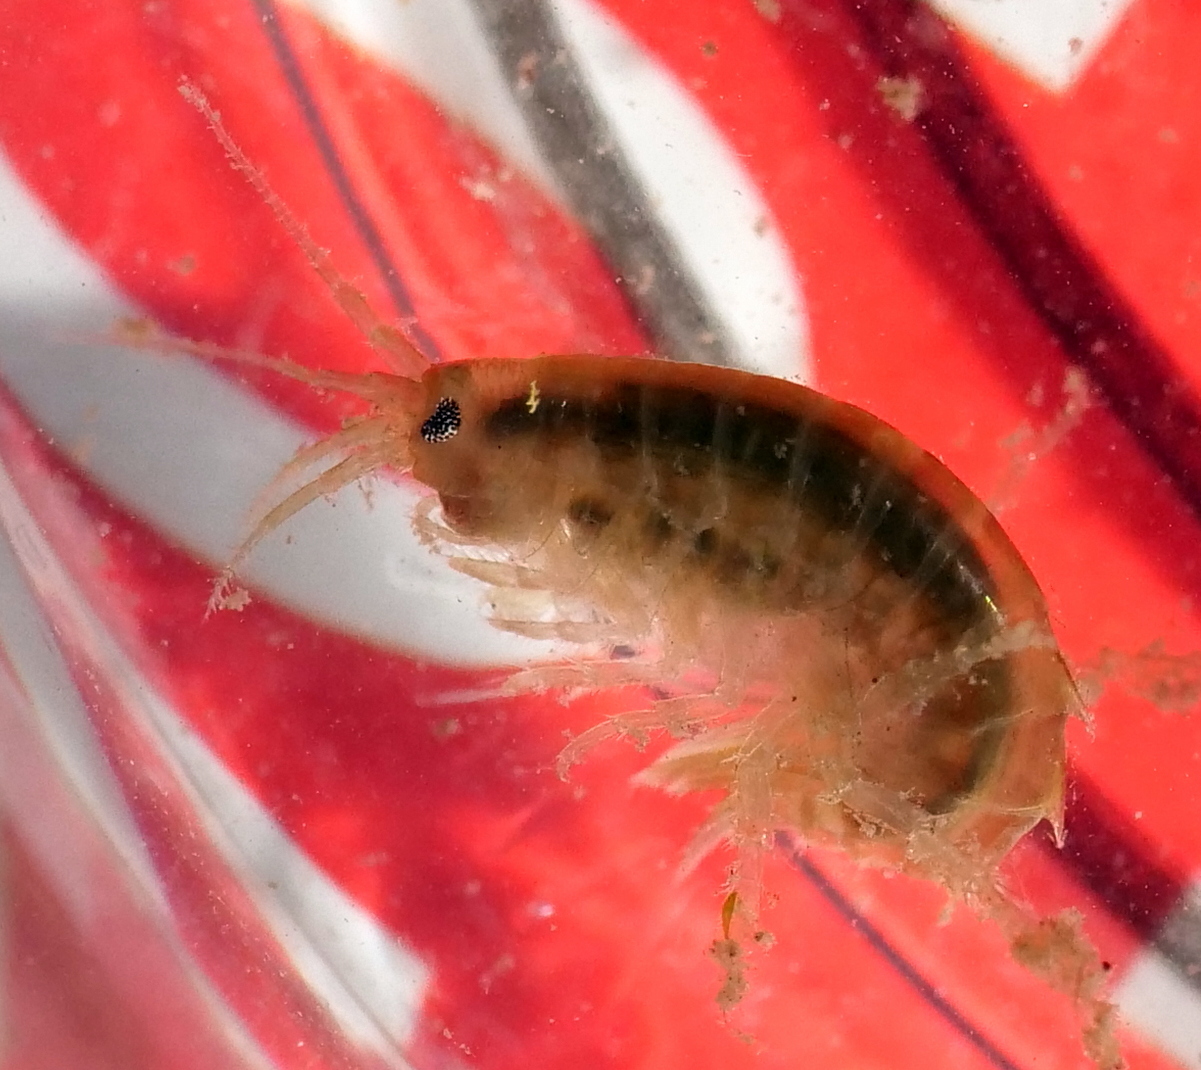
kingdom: Animalia
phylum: Arthropoda
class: Malacostraca
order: Amphipoda
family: Gammaridae
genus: Gammarus
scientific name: Gammarus roeselii
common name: Lacustrine amphipod
